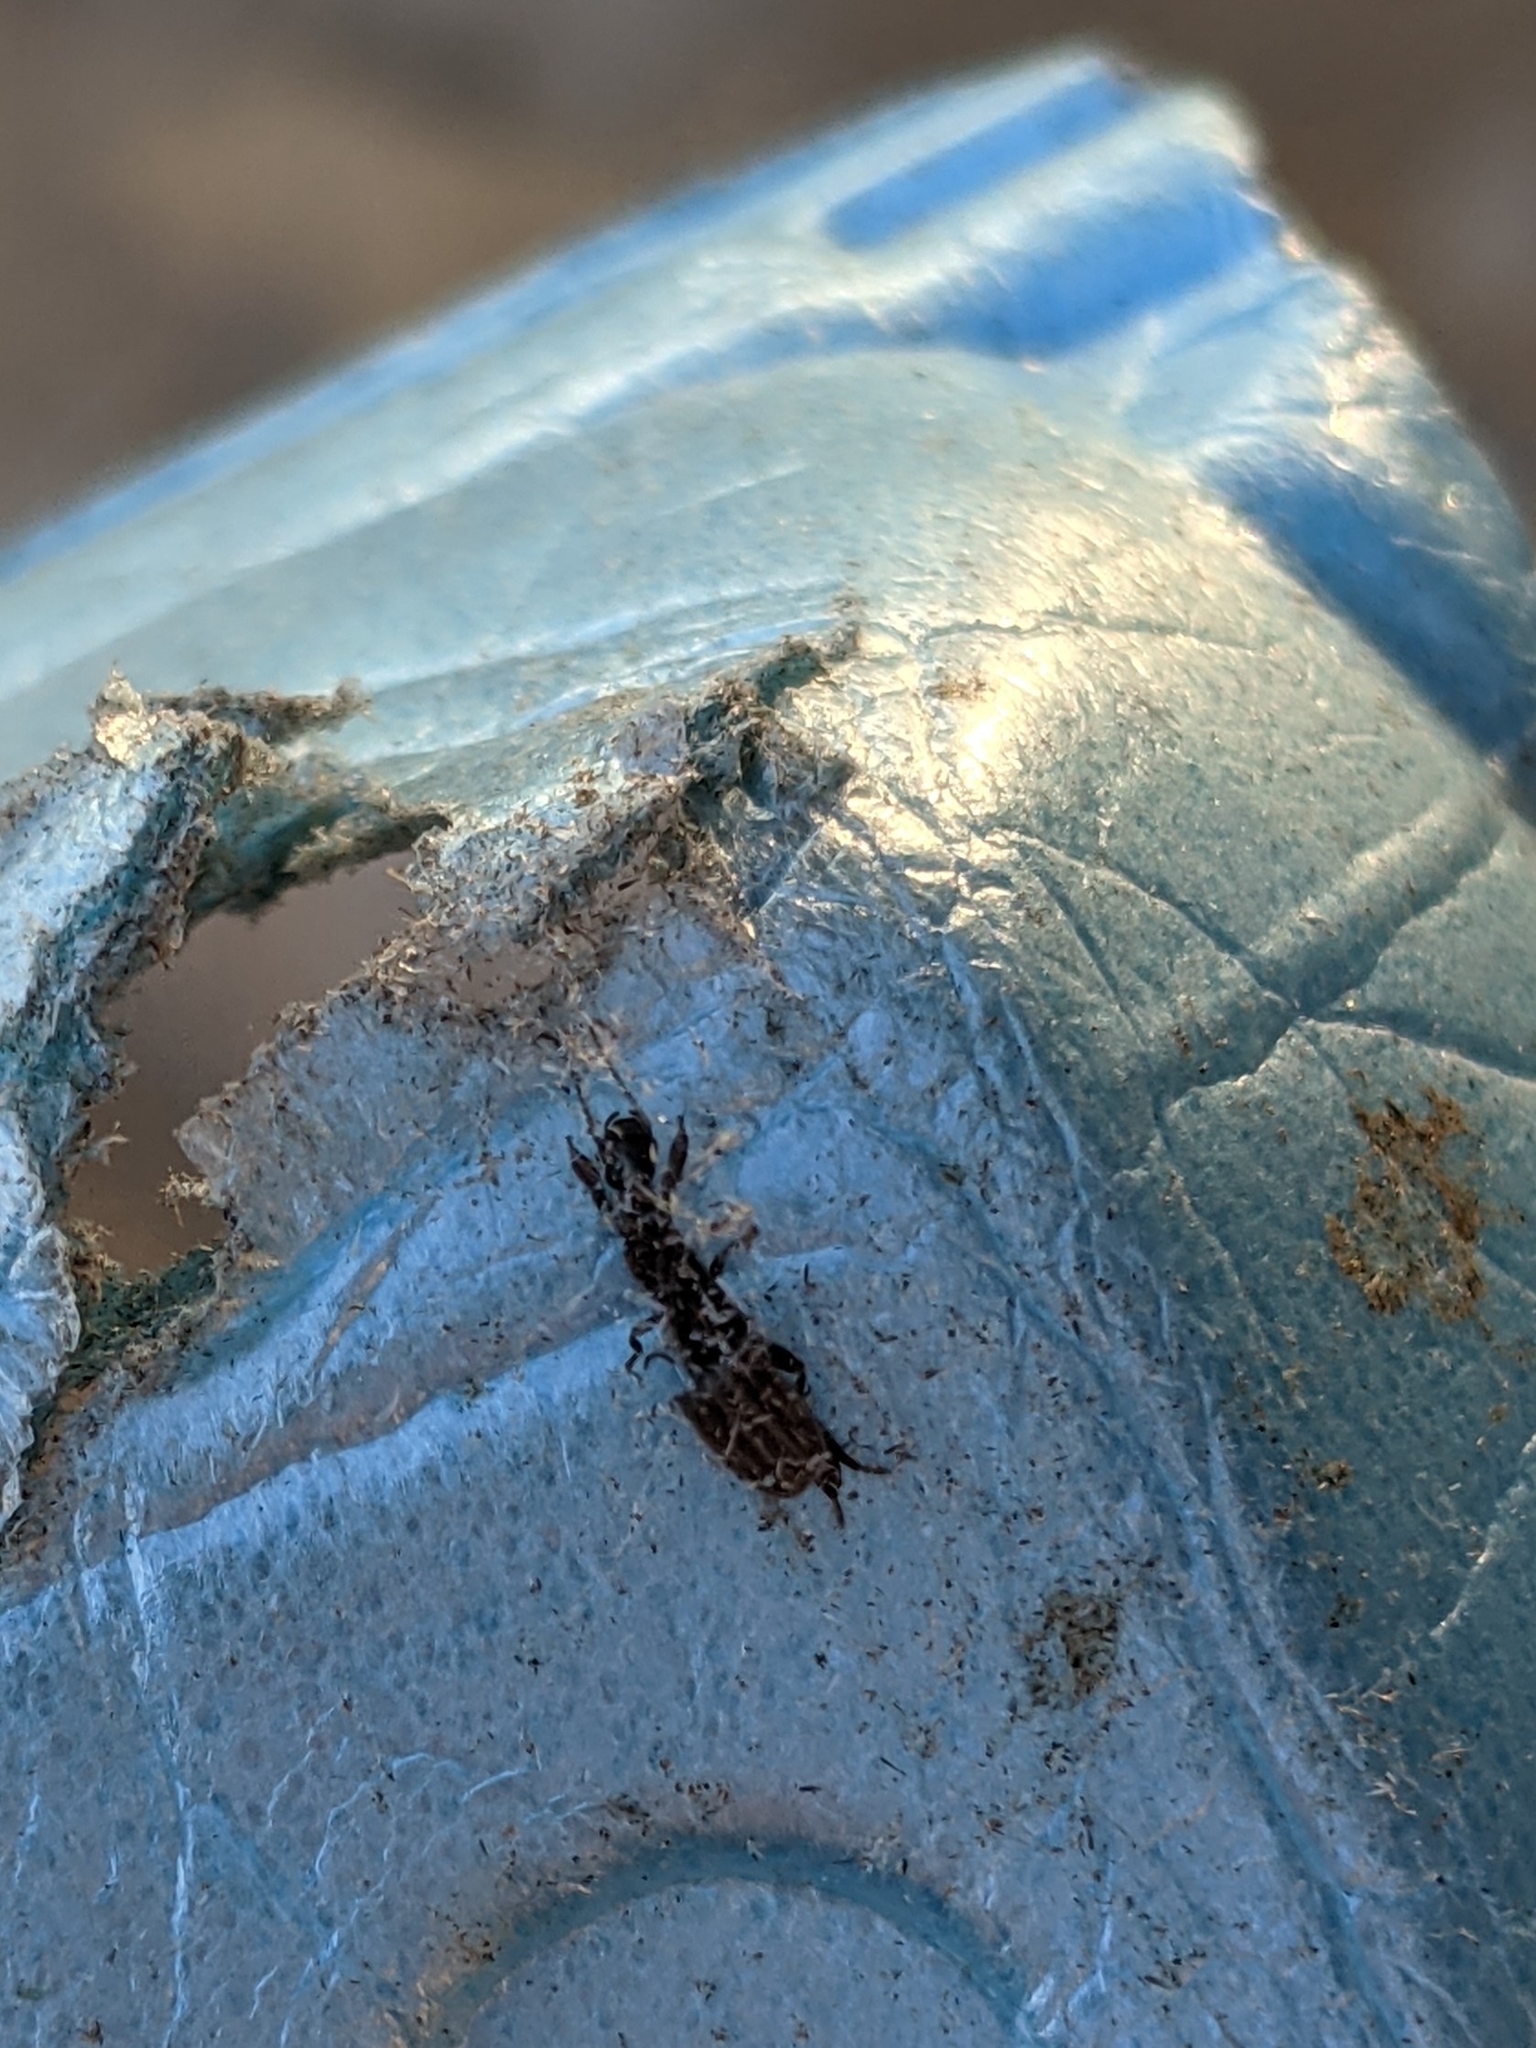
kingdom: Animalia
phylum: Arthropoda
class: Insecta
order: Embioptera
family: Oligotomidae
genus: Oligotoma
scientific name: Oligotoma nigra
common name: Black webspinner
